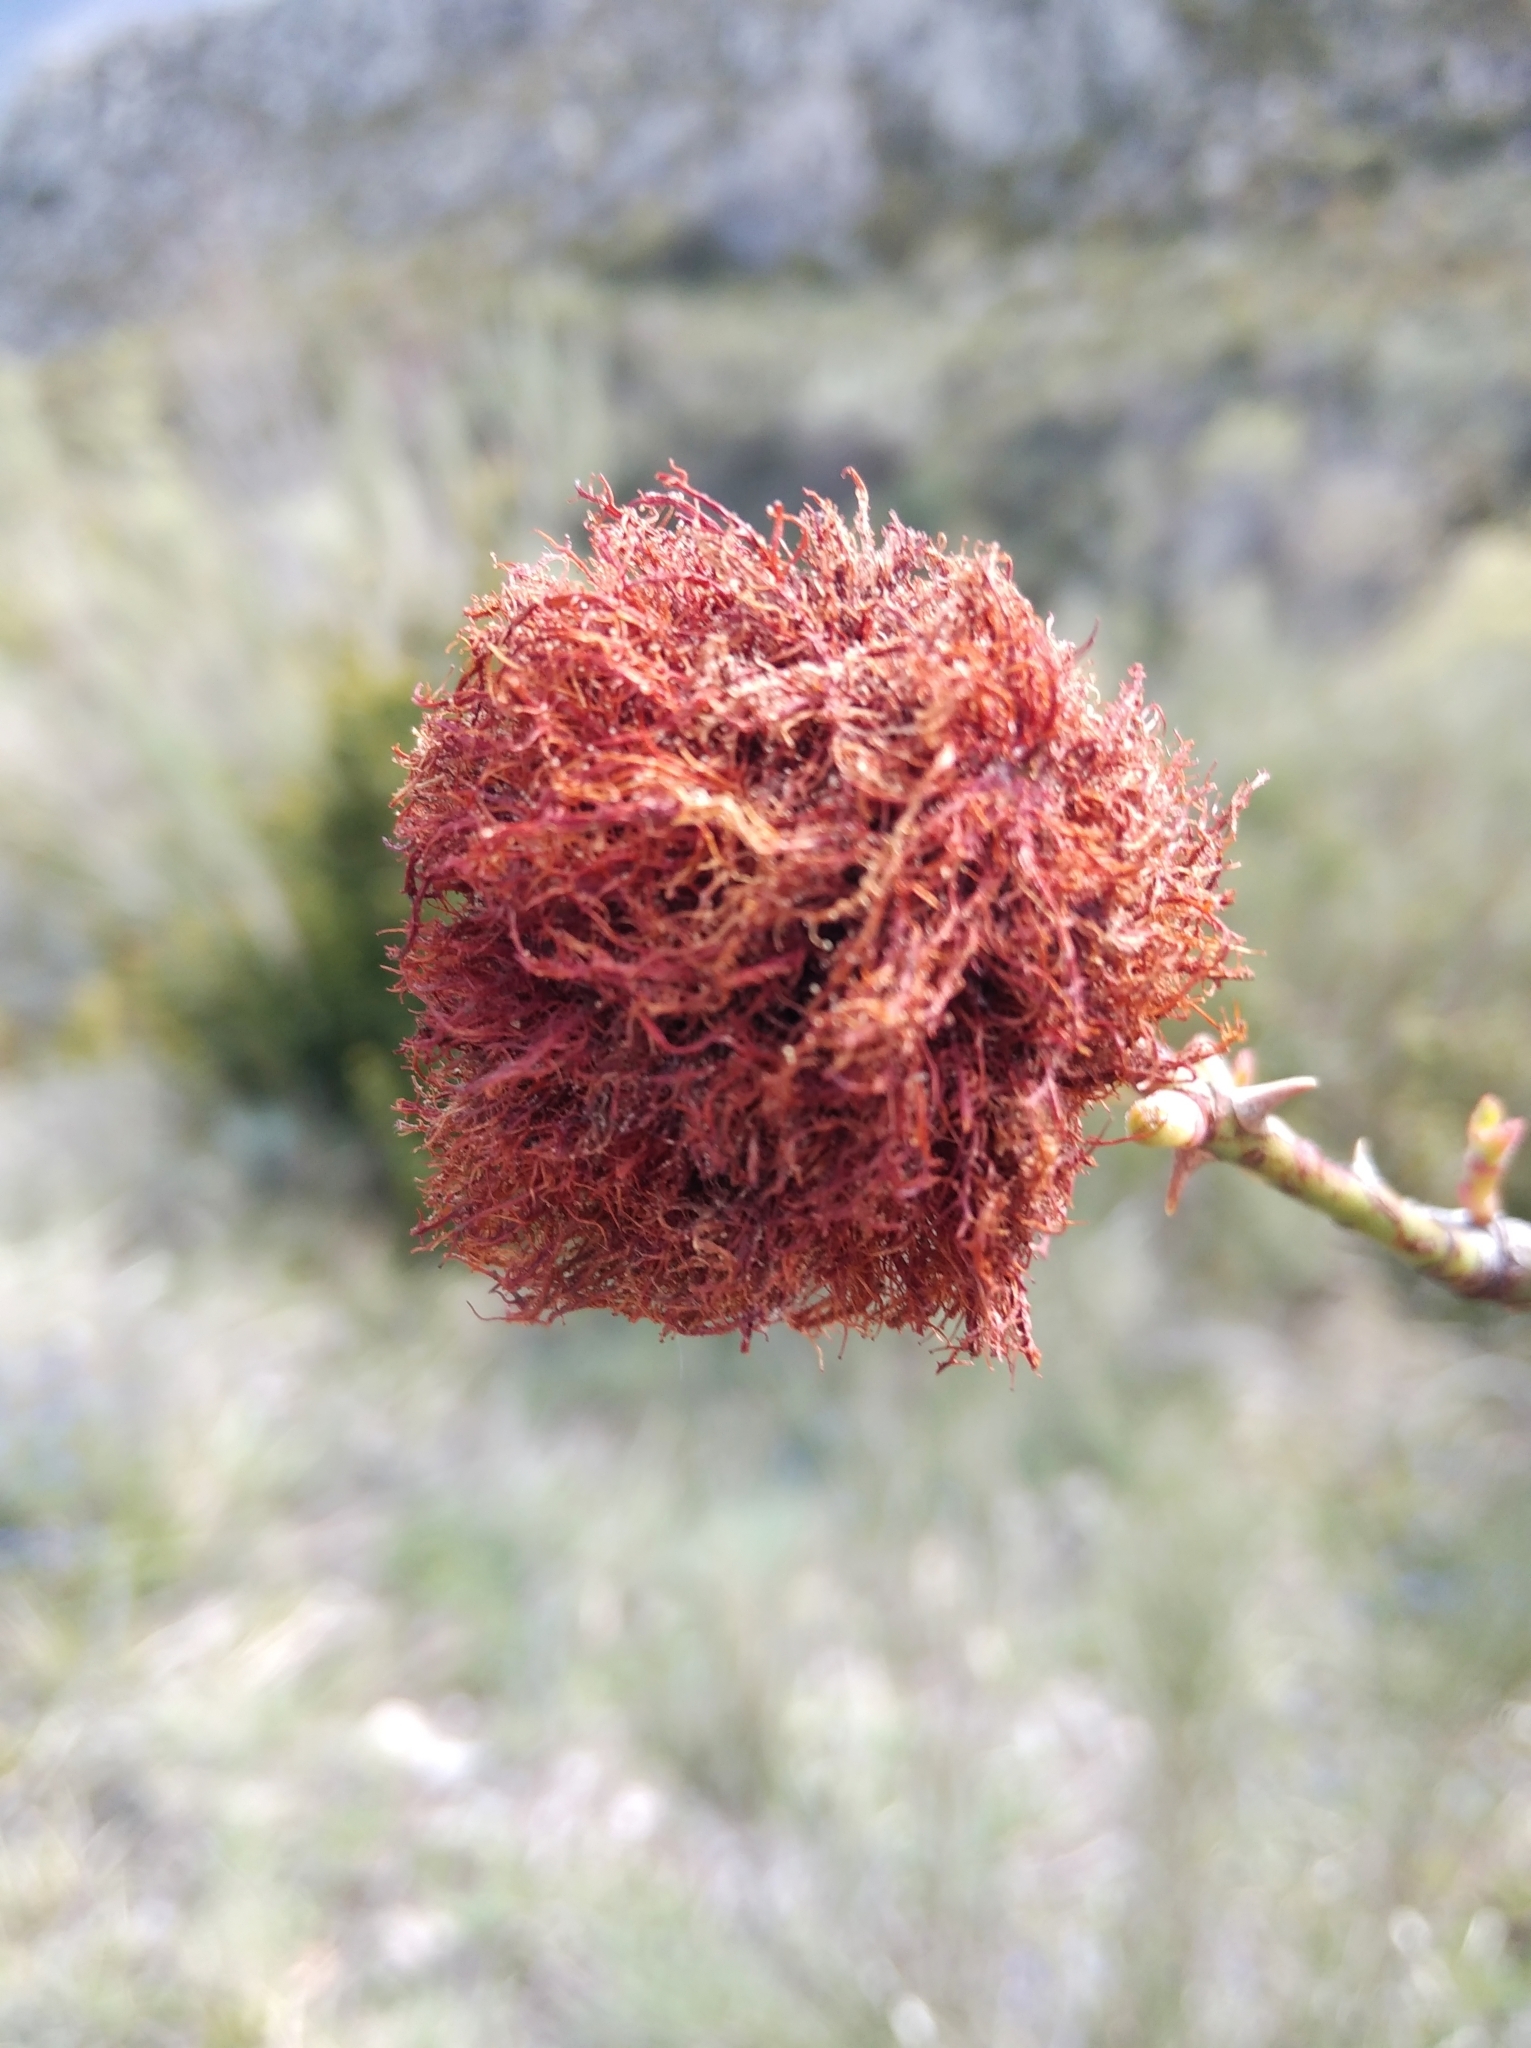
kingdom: Animalia
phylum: Arthropoda
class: Insecta
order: Hymenoptera
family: Cynipidae
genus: Diplolepis
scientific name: Diplolepis rosae
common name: Bedeguar gall
